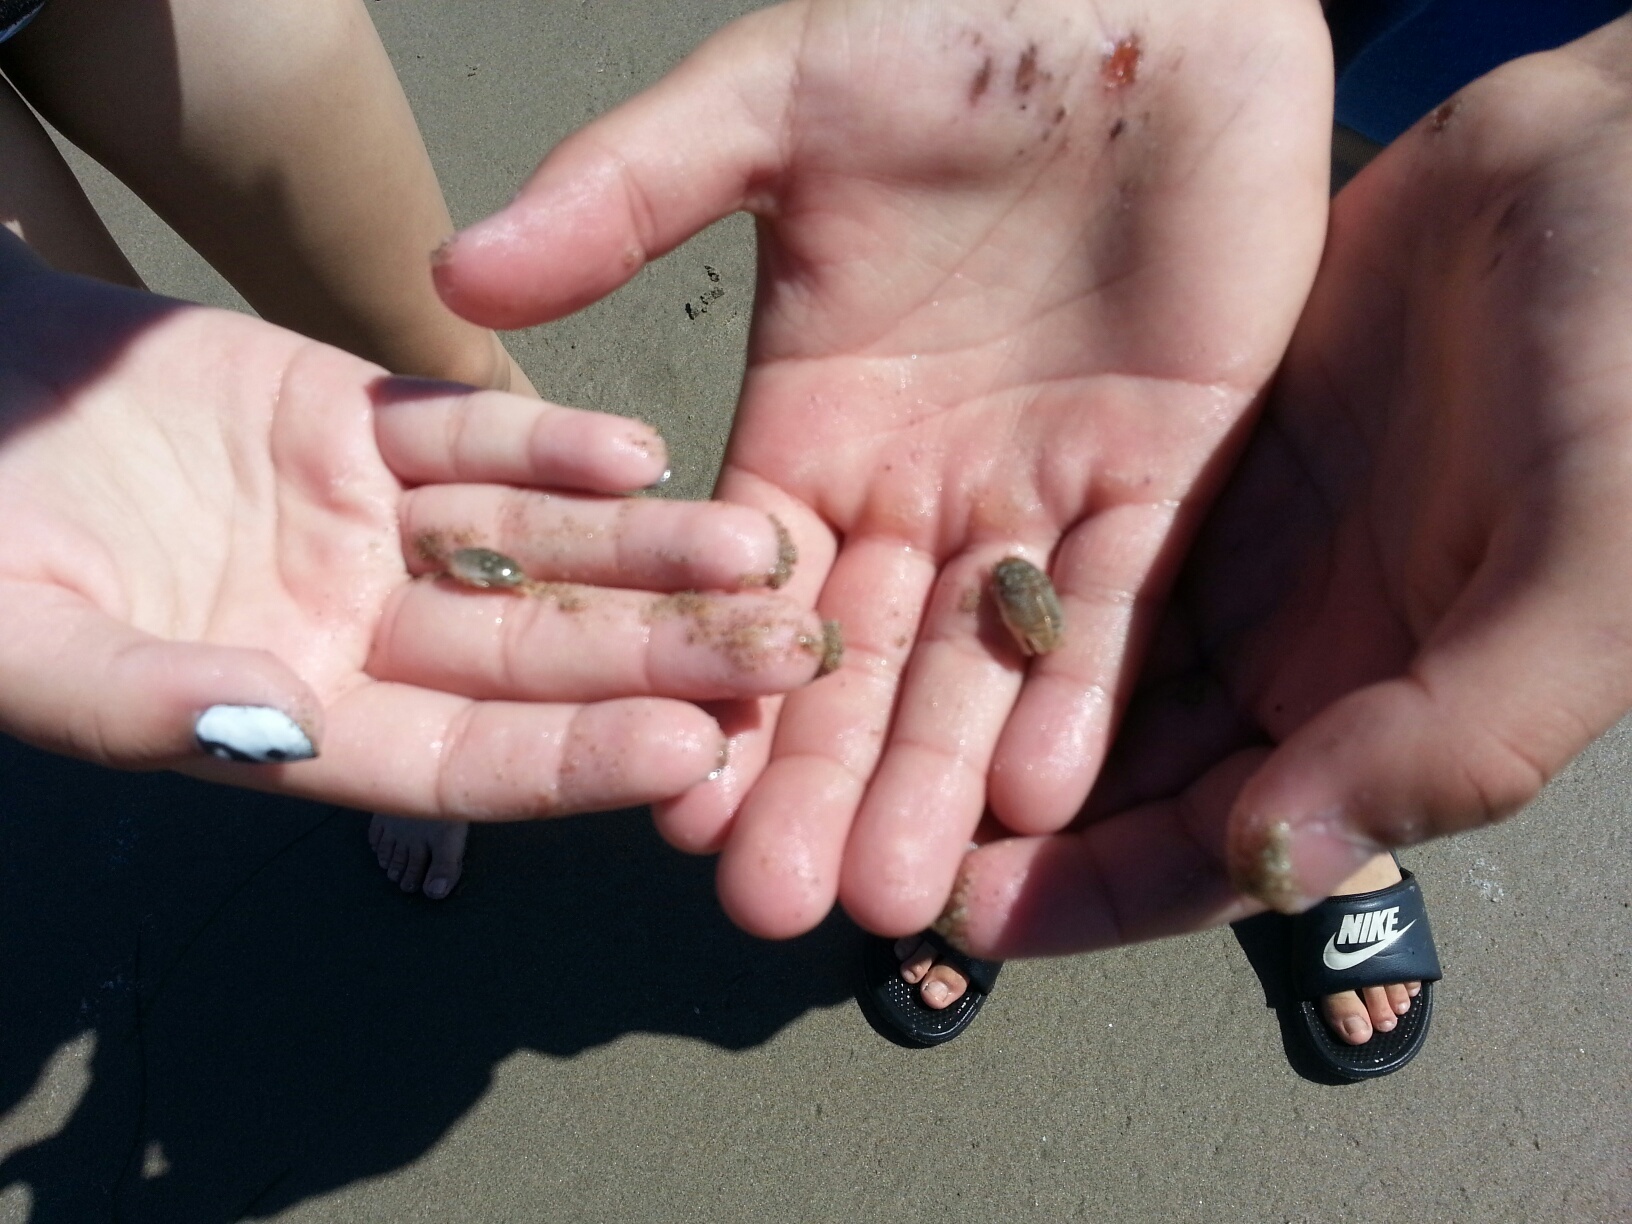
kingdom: Animalia
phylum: Arthropoda
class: Malacostraca
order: Decapoda
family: Hippidae
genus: Emerita
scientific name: Emerita analoga
